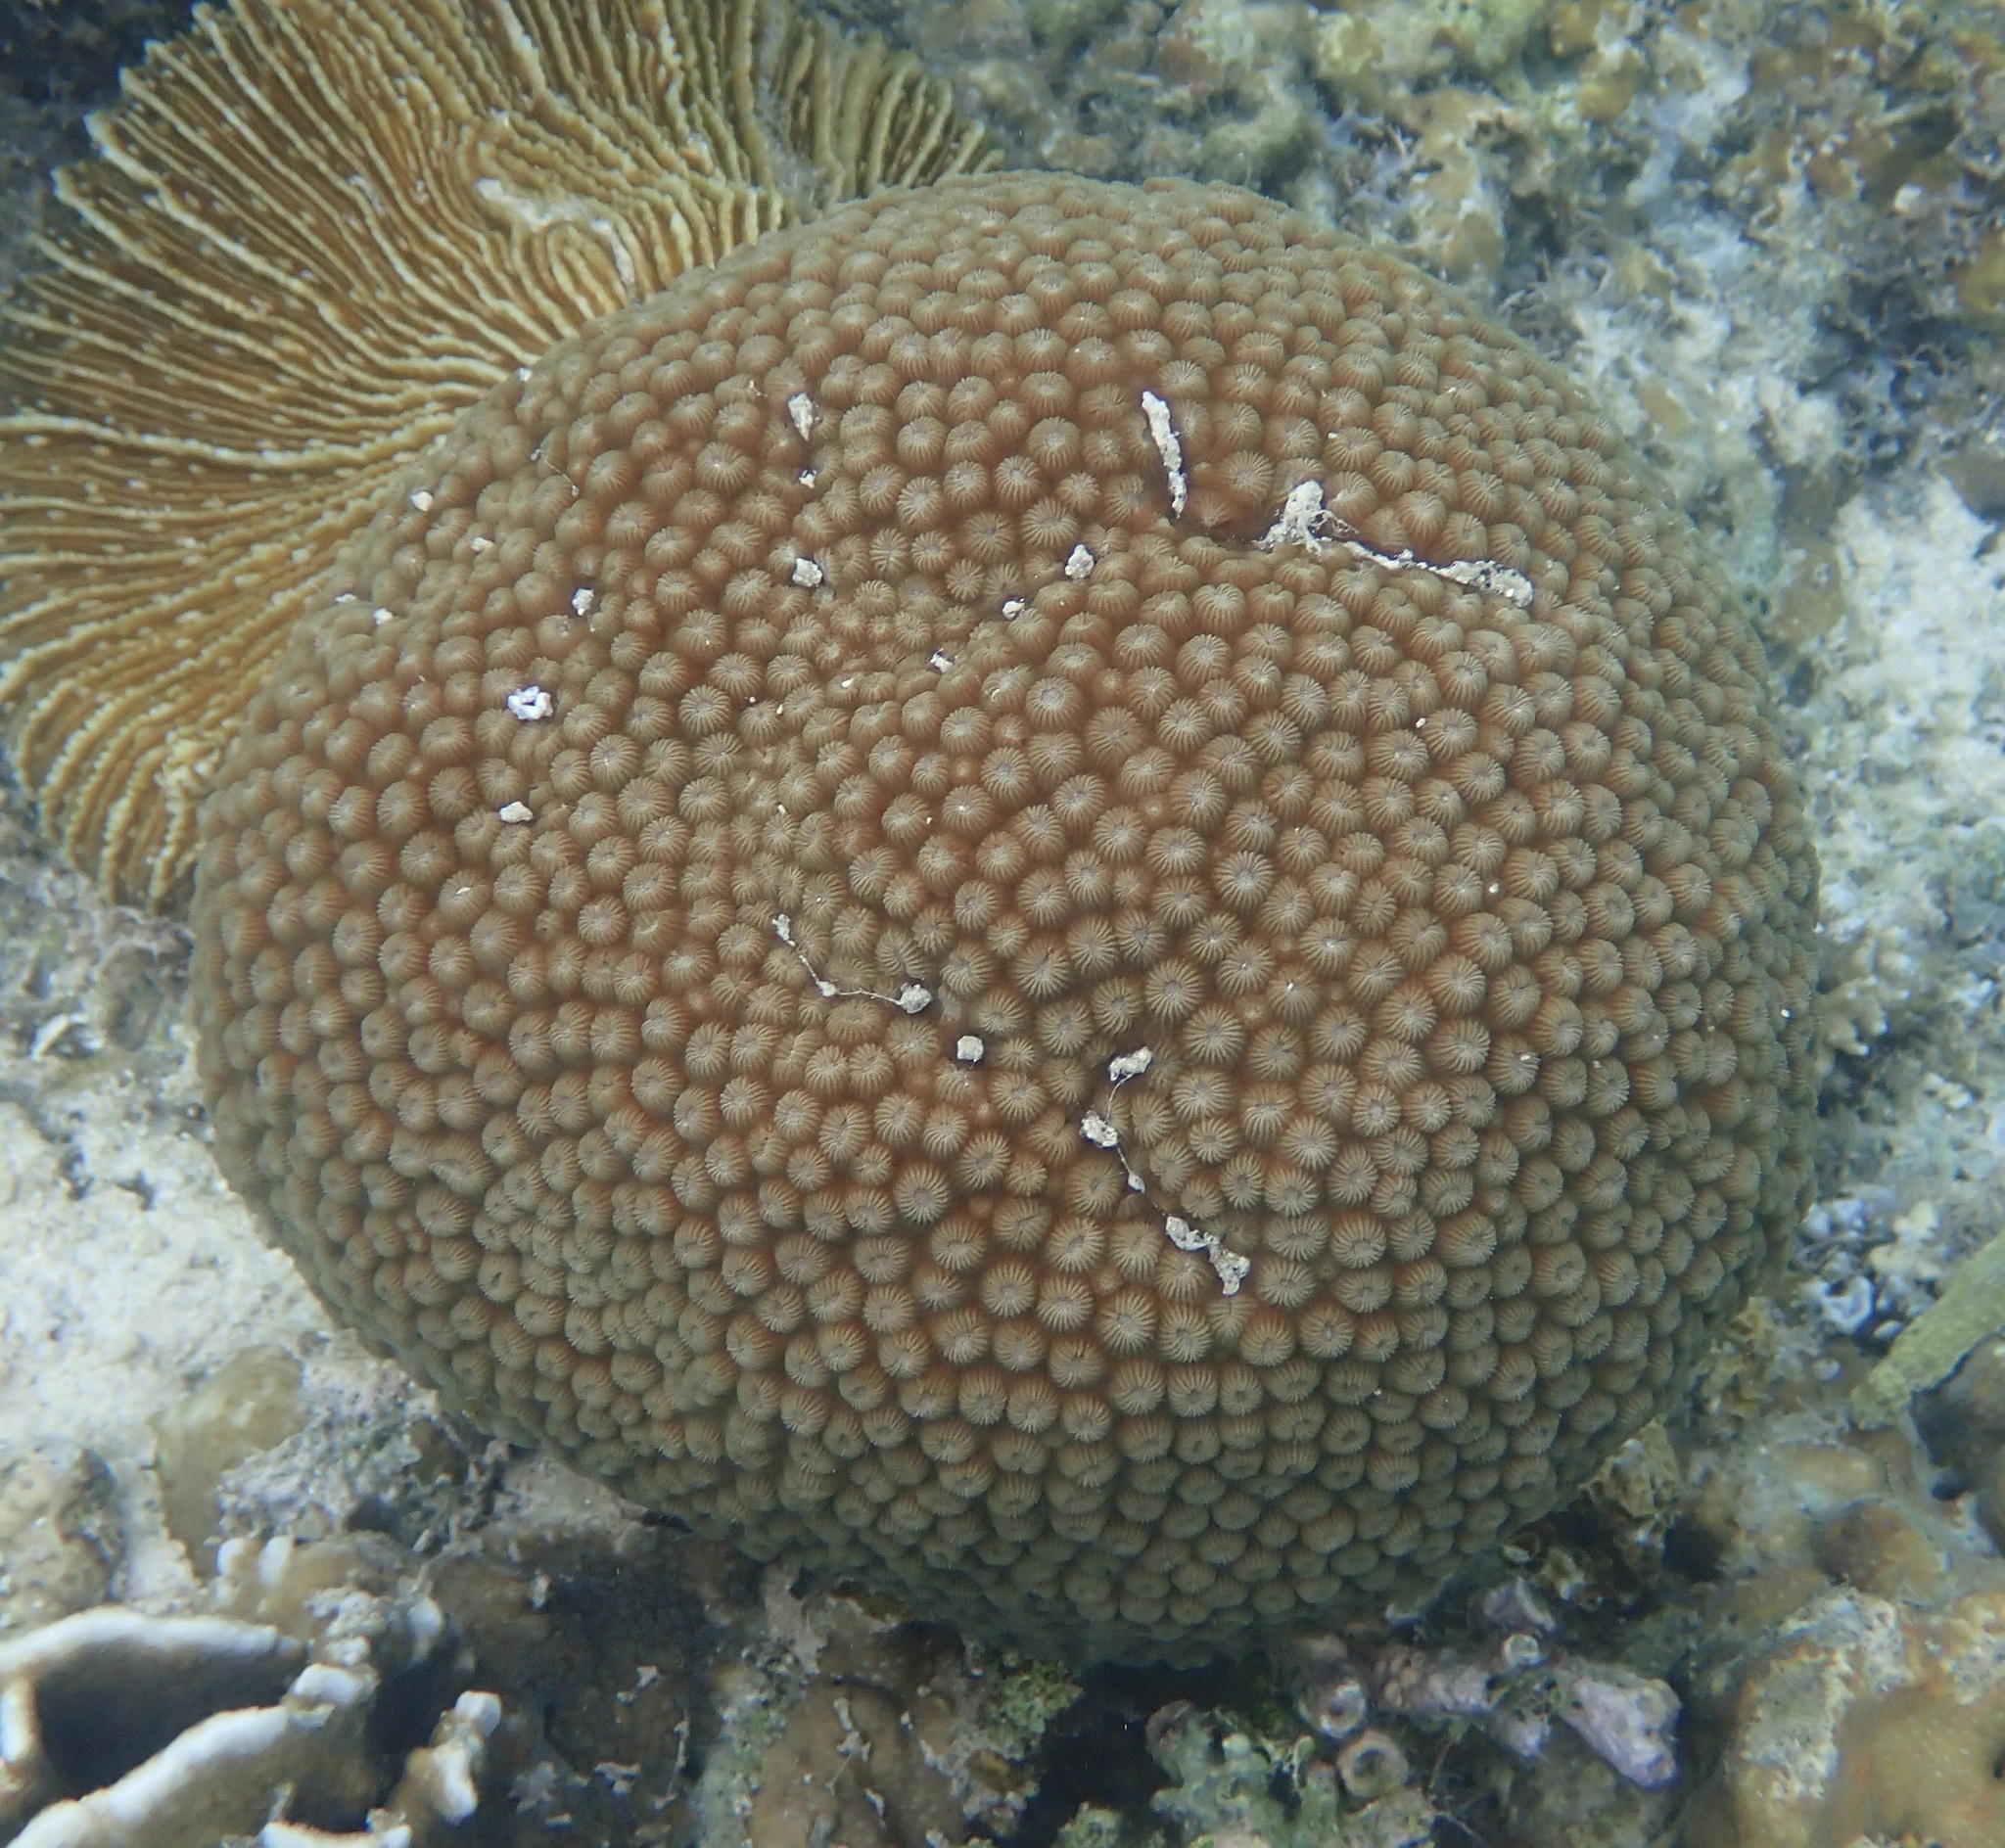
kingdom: Animalia
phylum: Cnidaria
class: Anthozoa
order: Scleractinia
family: Diploastraeidae
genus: Diploastrea
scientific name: Diploastrea heliopora
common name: Double-star coral
